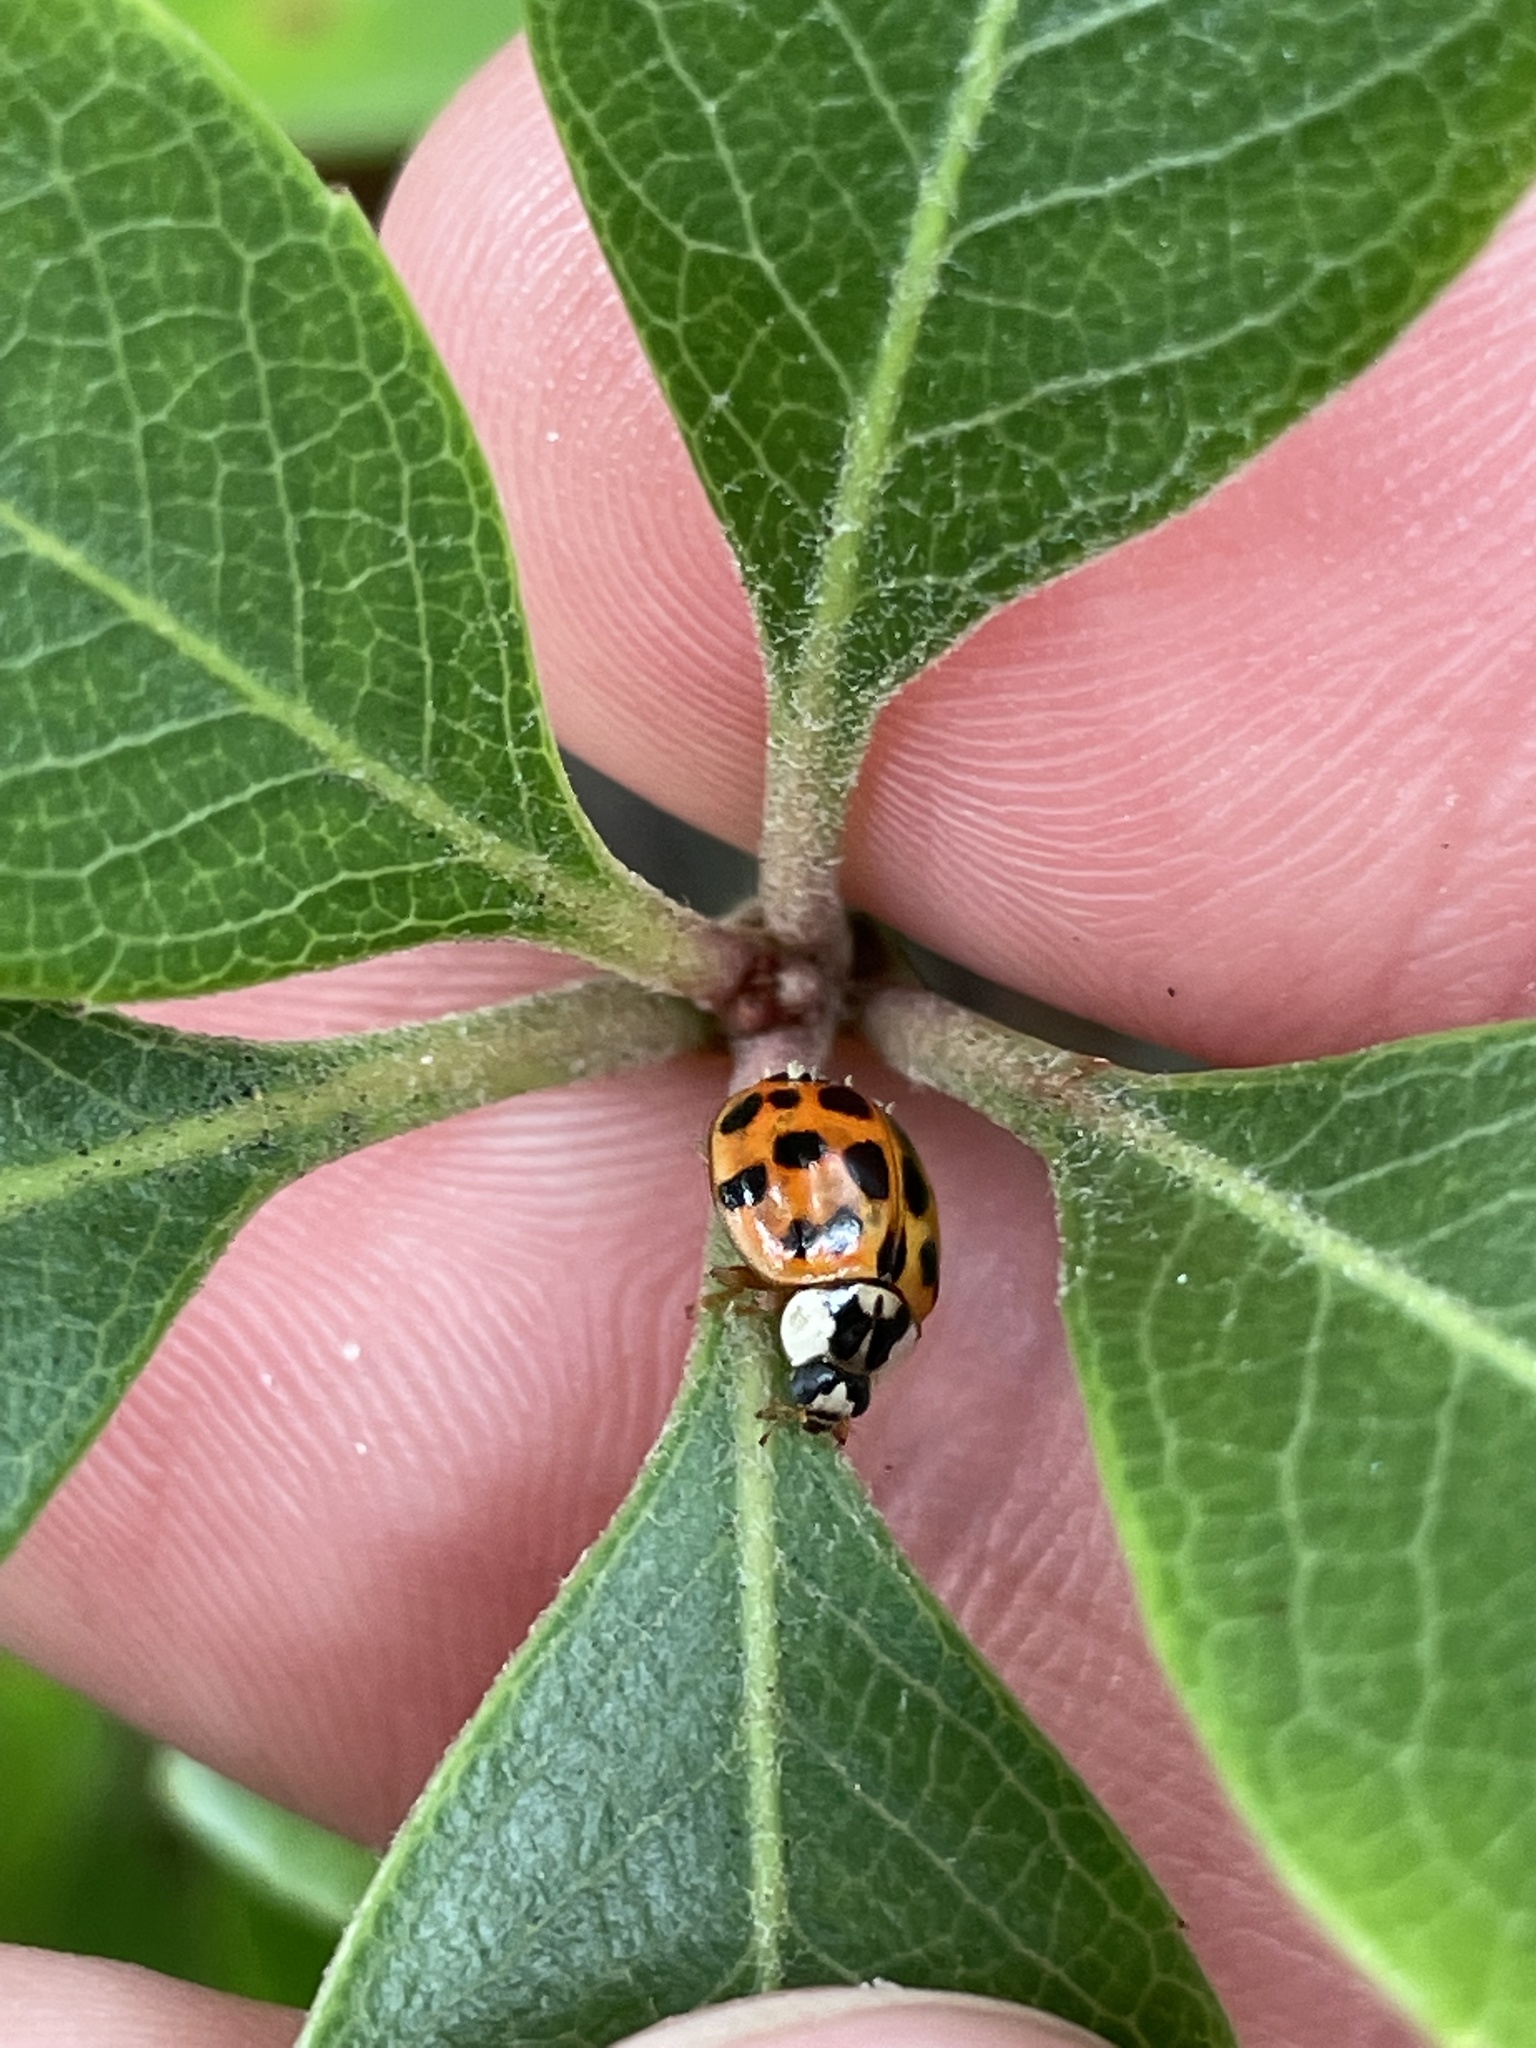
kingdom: Animalia
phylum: Arthropoda
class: Insecta
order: Coleoptera
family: Coccinellidae
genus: Harmonia
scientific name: Harmonia axyridis
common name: Harlequin ladybird
